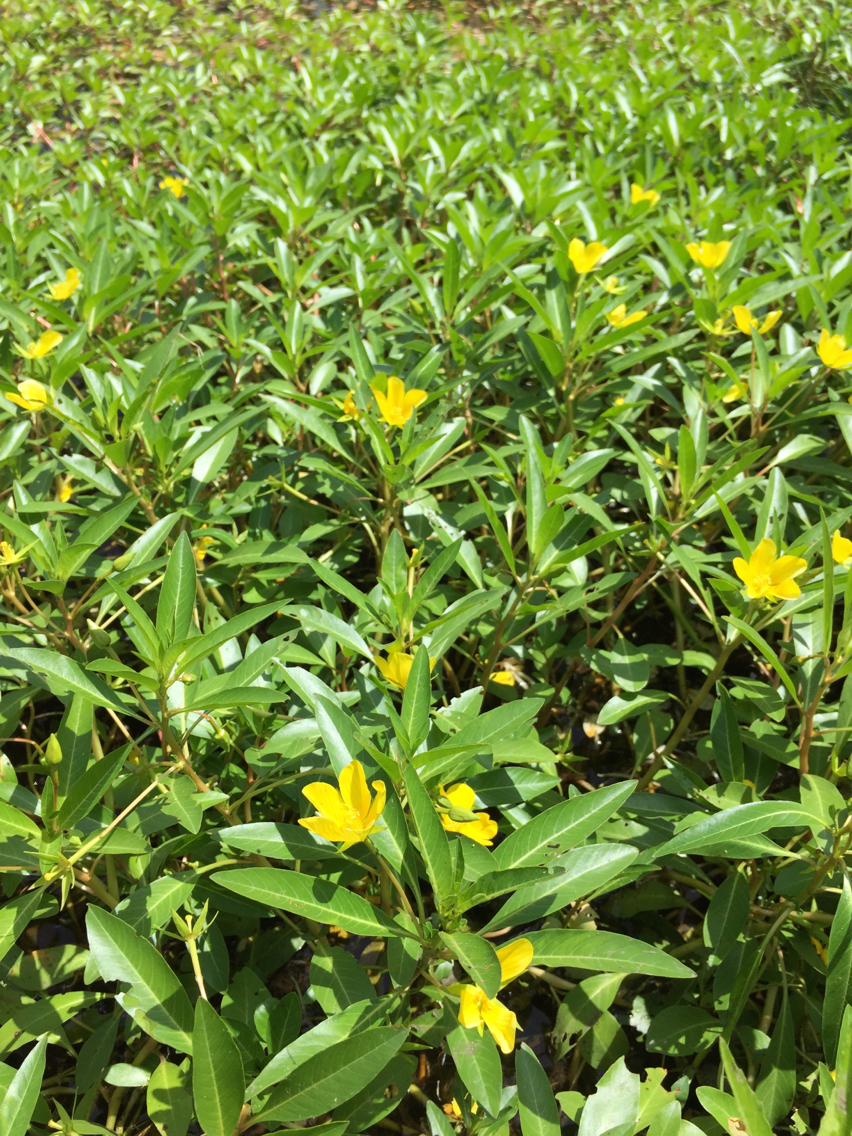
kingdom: Plantae
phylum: Tracheophyta
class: Magnoliopsida
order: Myrtales
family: Onagraceae
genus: Ludwigia
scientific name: Ludwigia peploides
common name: Floating primrose-willow
